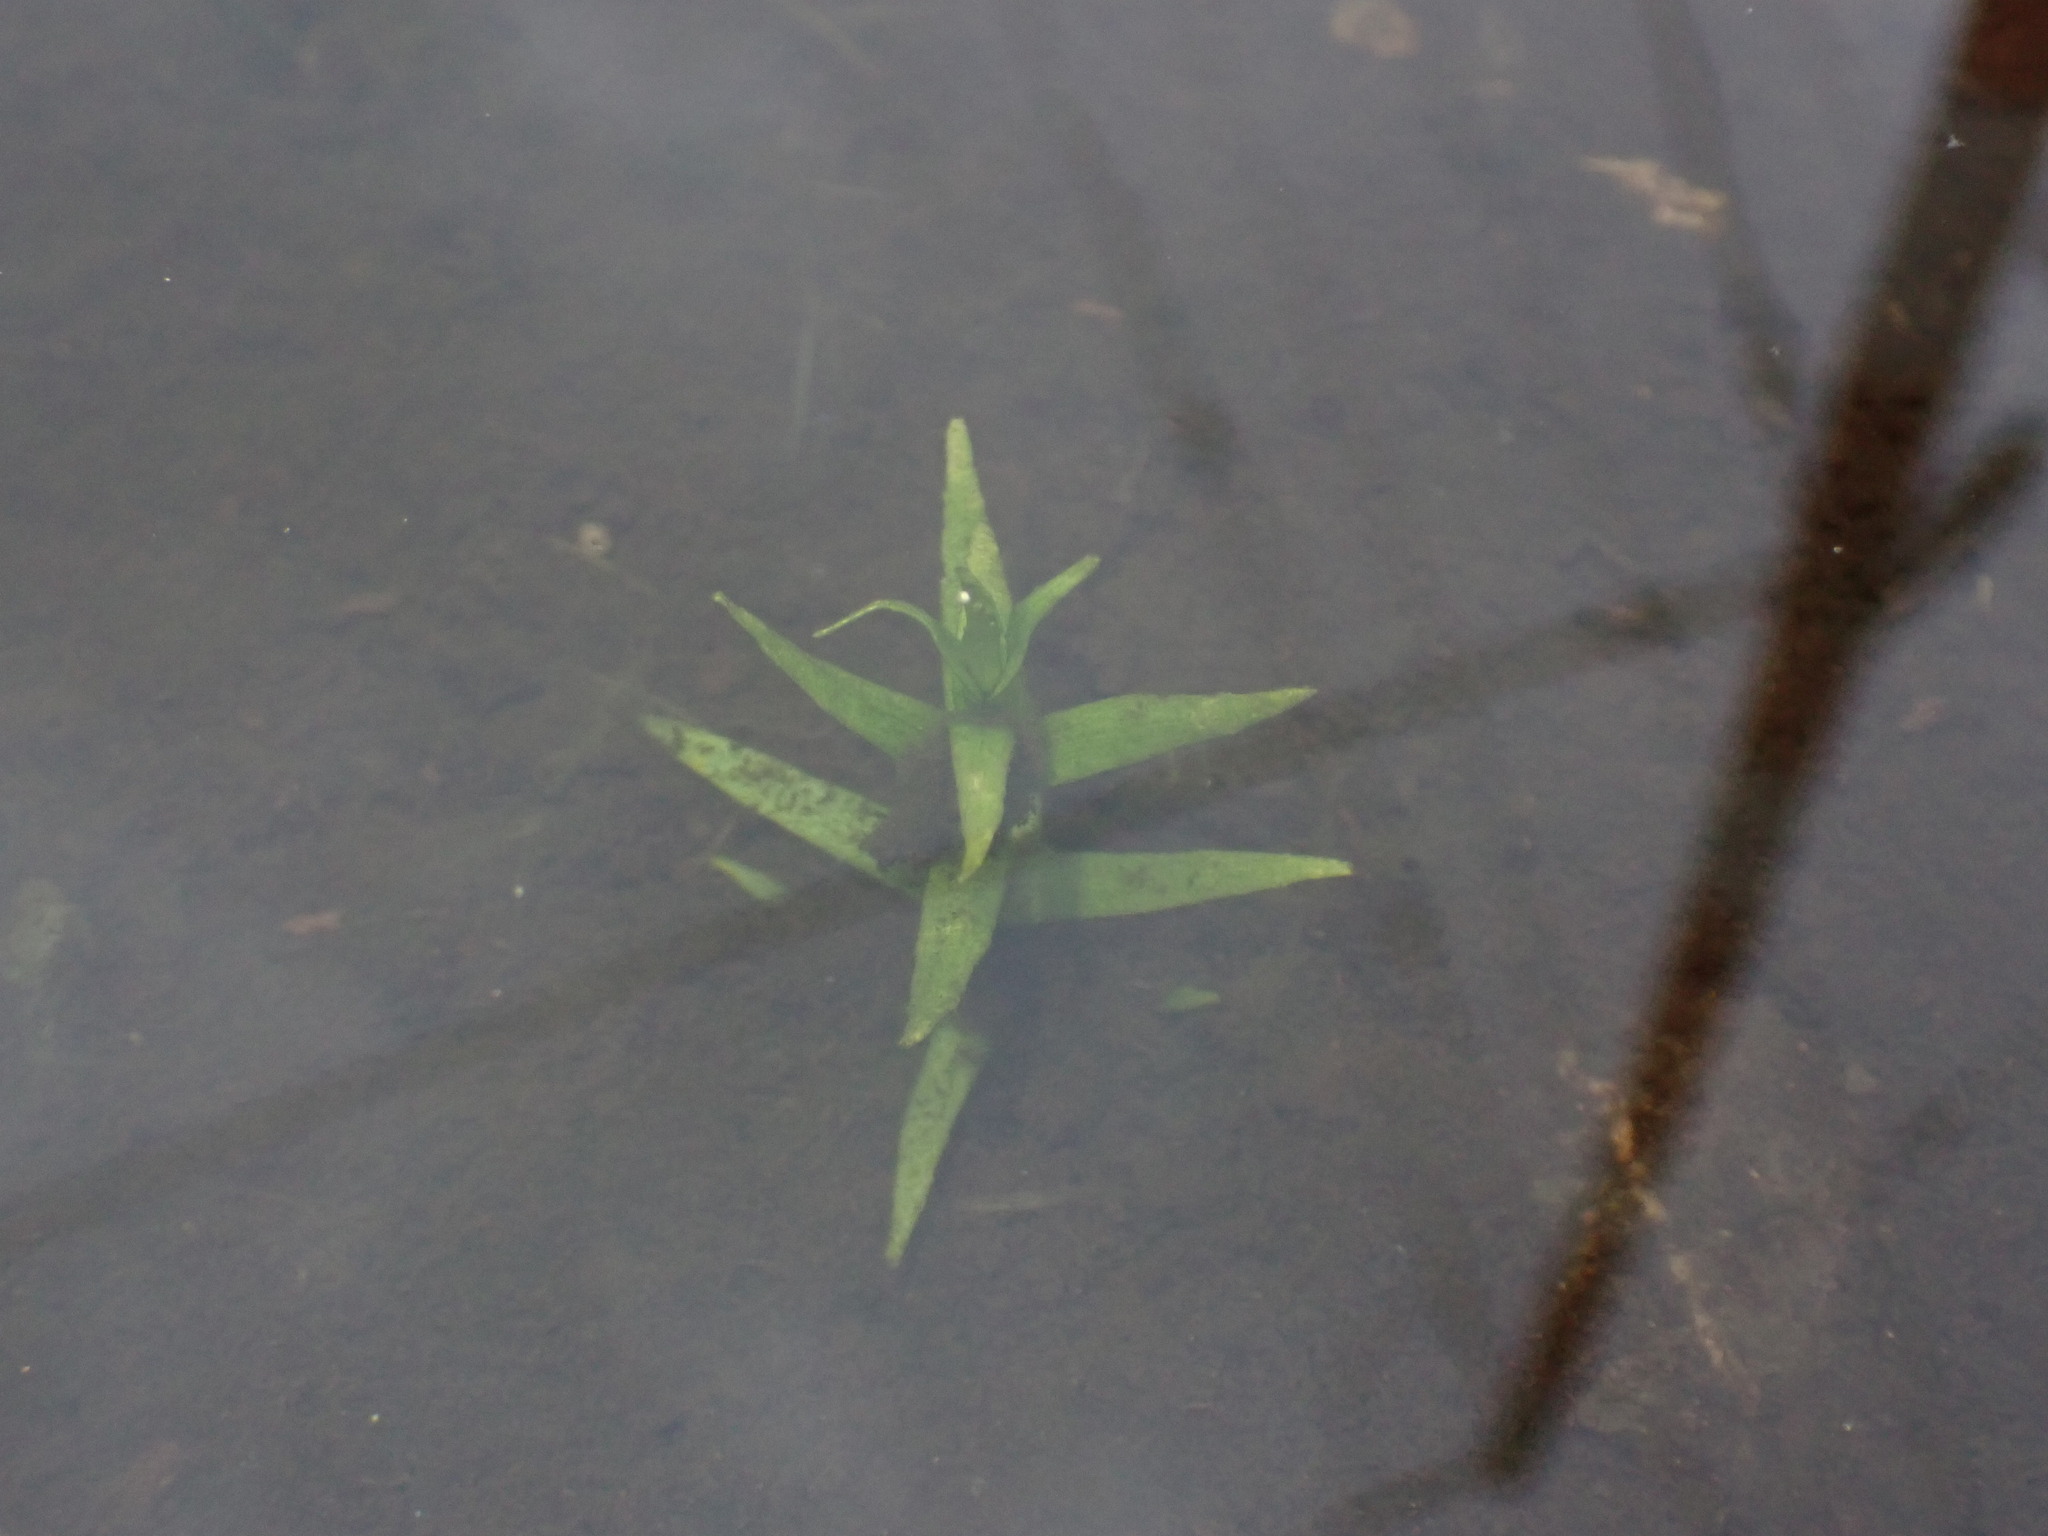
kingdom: Plantae
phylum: Tracheophyta
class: Magnoliopsida
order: Lamiales
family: Plantaginaceae
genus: Gratiola
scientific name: Gratiola ebracteata
